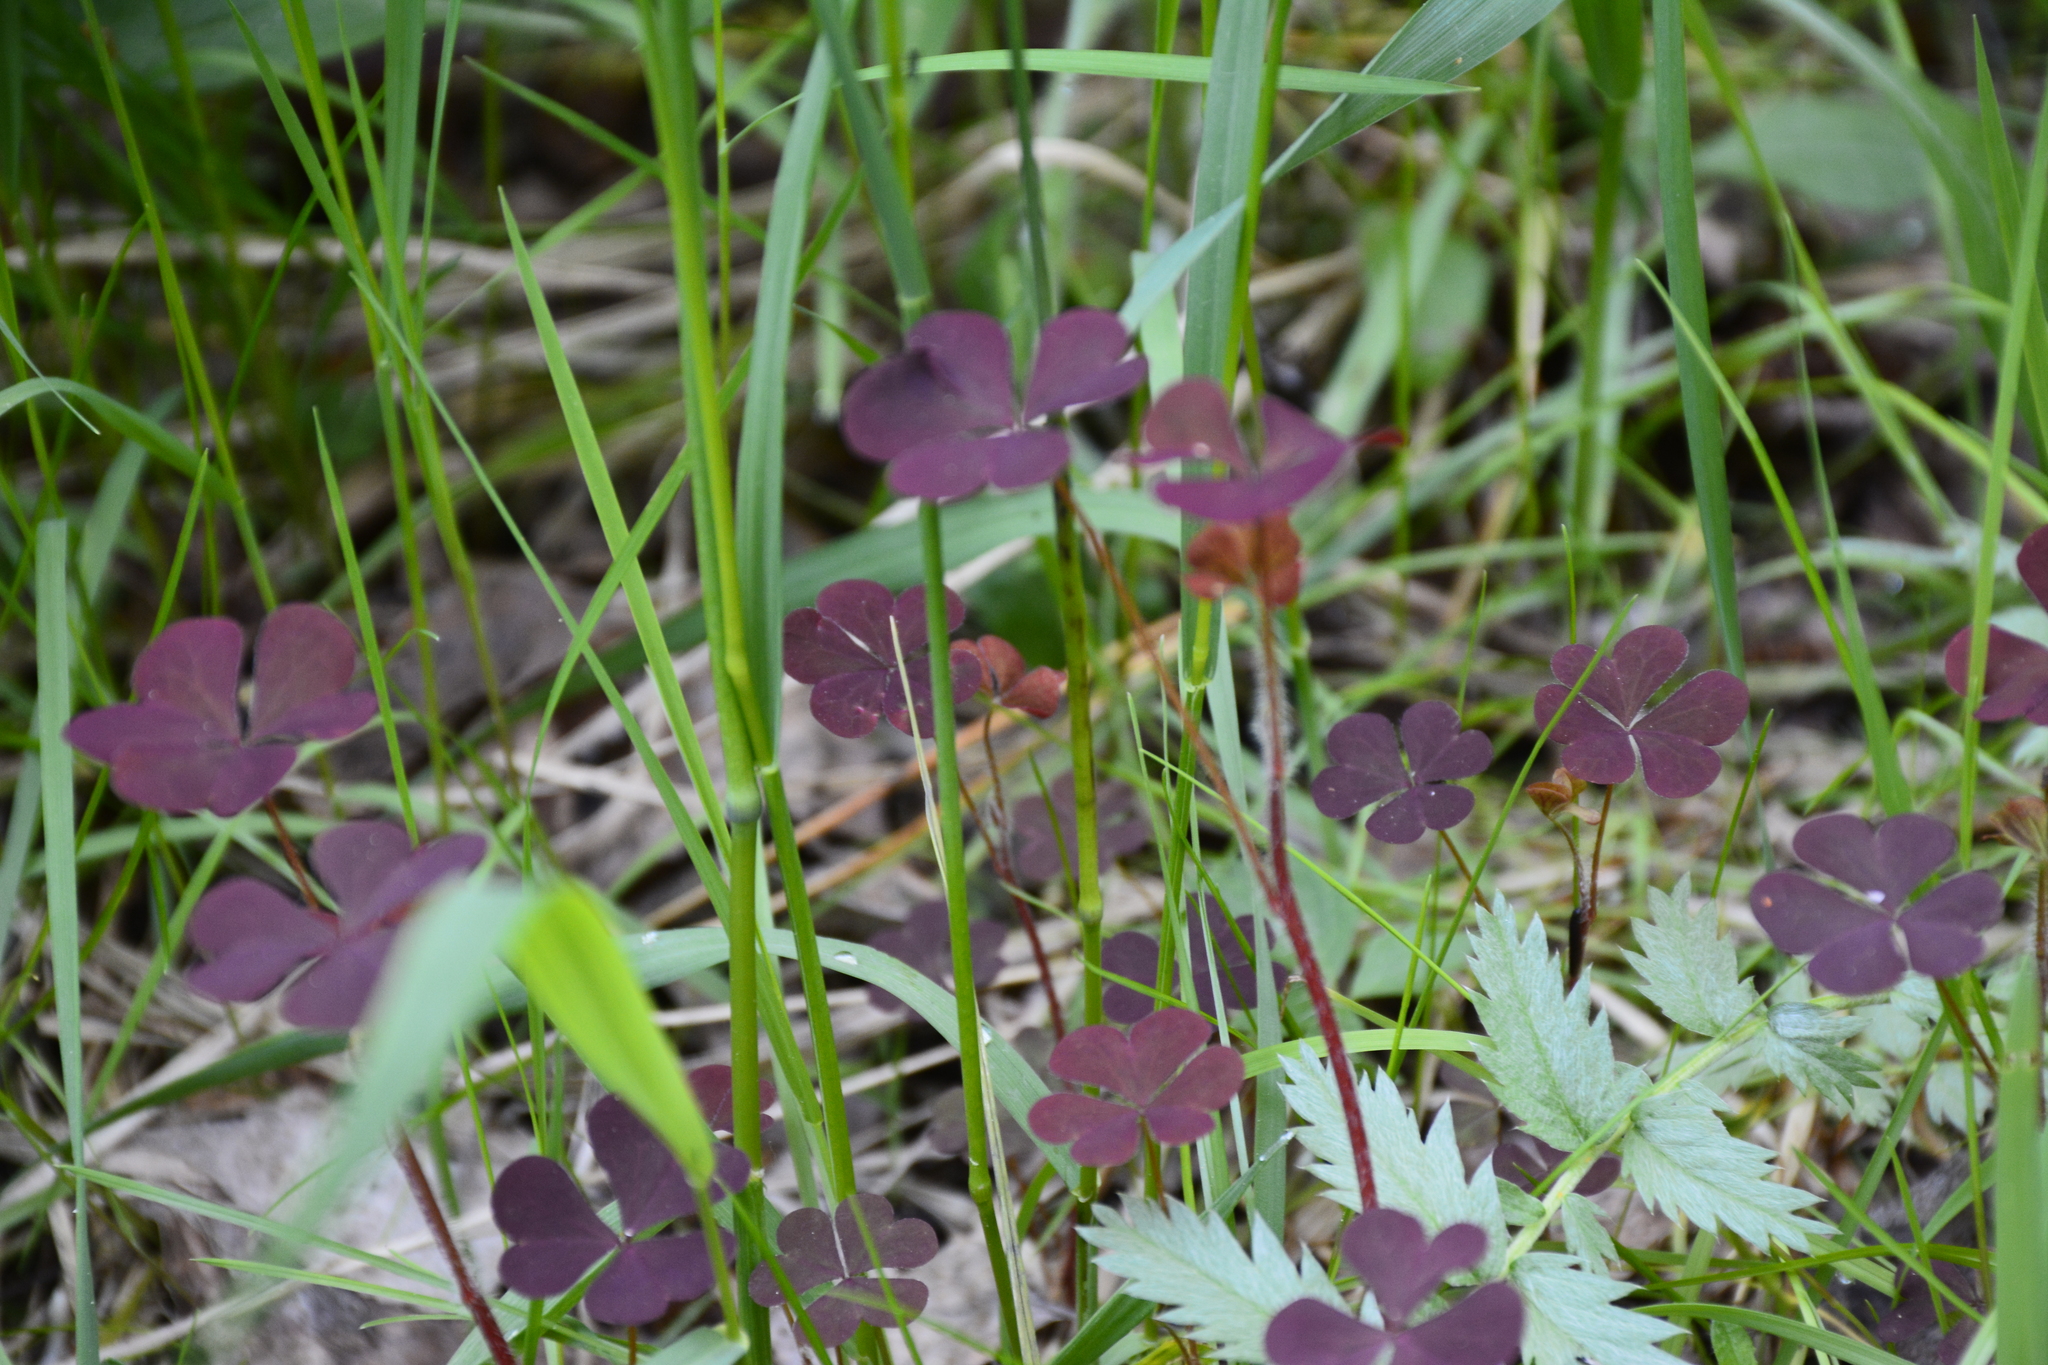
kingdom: Plantae
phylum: Tracheophyta
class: Magnoliopsida
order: Oxalidales
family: Oxalidaceae
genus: Oxalis
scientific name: Oxalis stricta
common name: Upright yellow-sorrel
